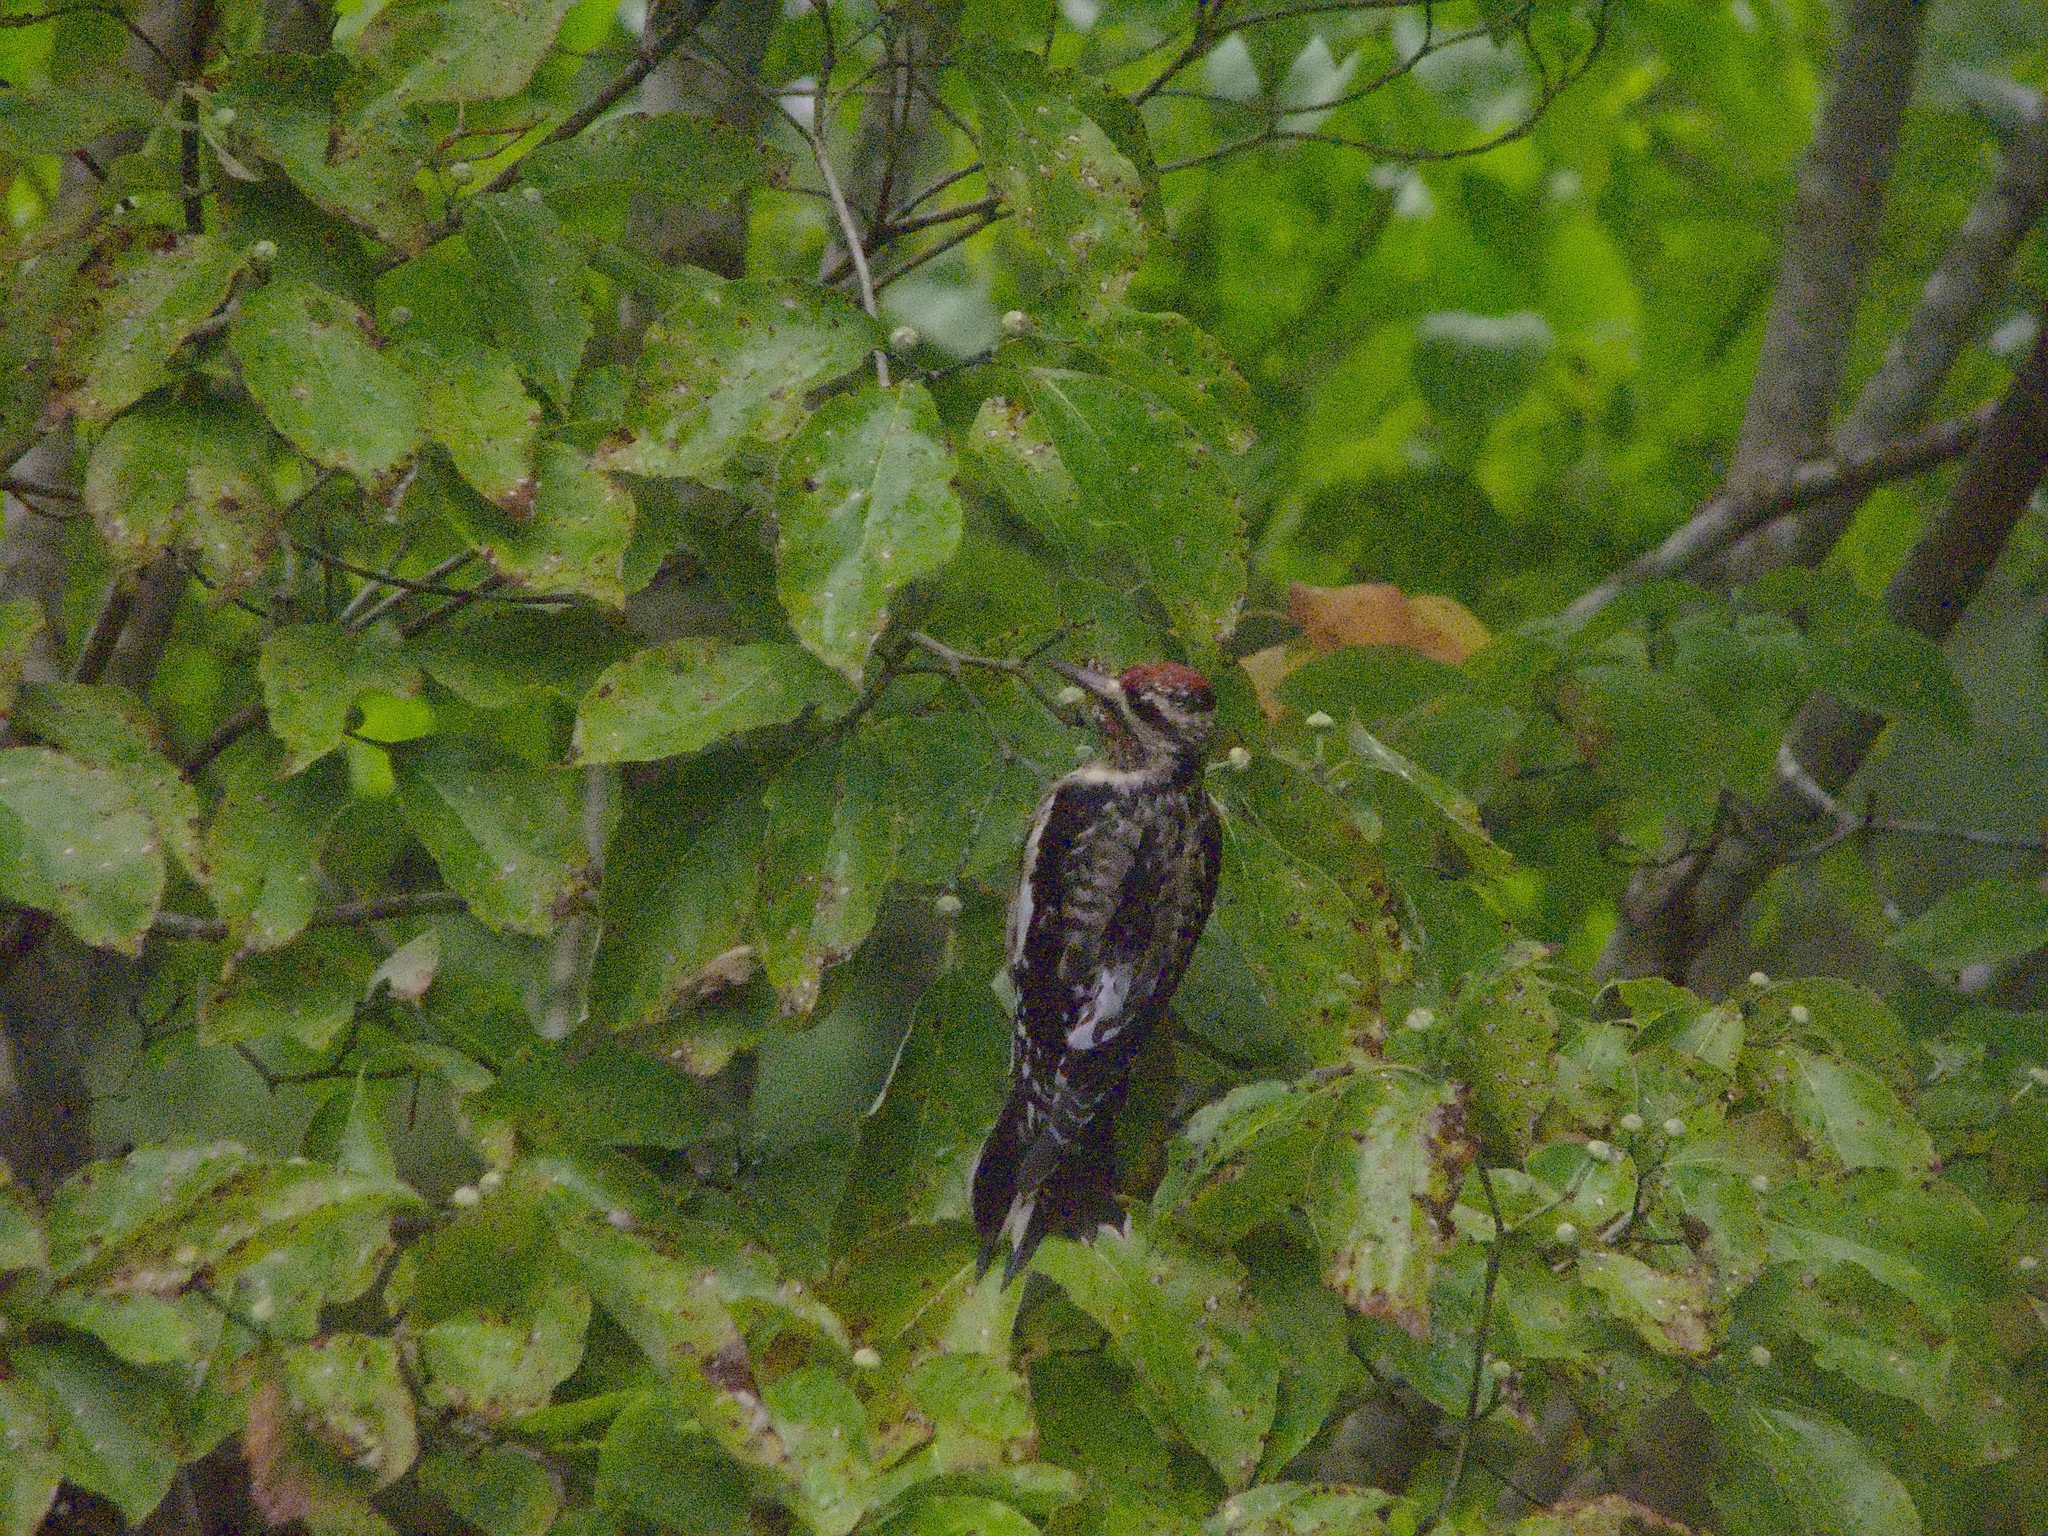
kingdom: Animalia
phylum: Chordata
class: Aves
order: Piciformes
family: Picidae
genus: Sphyrapicus
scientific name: Sphyrapicus varius
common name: Yellow-bellied sapsucker
